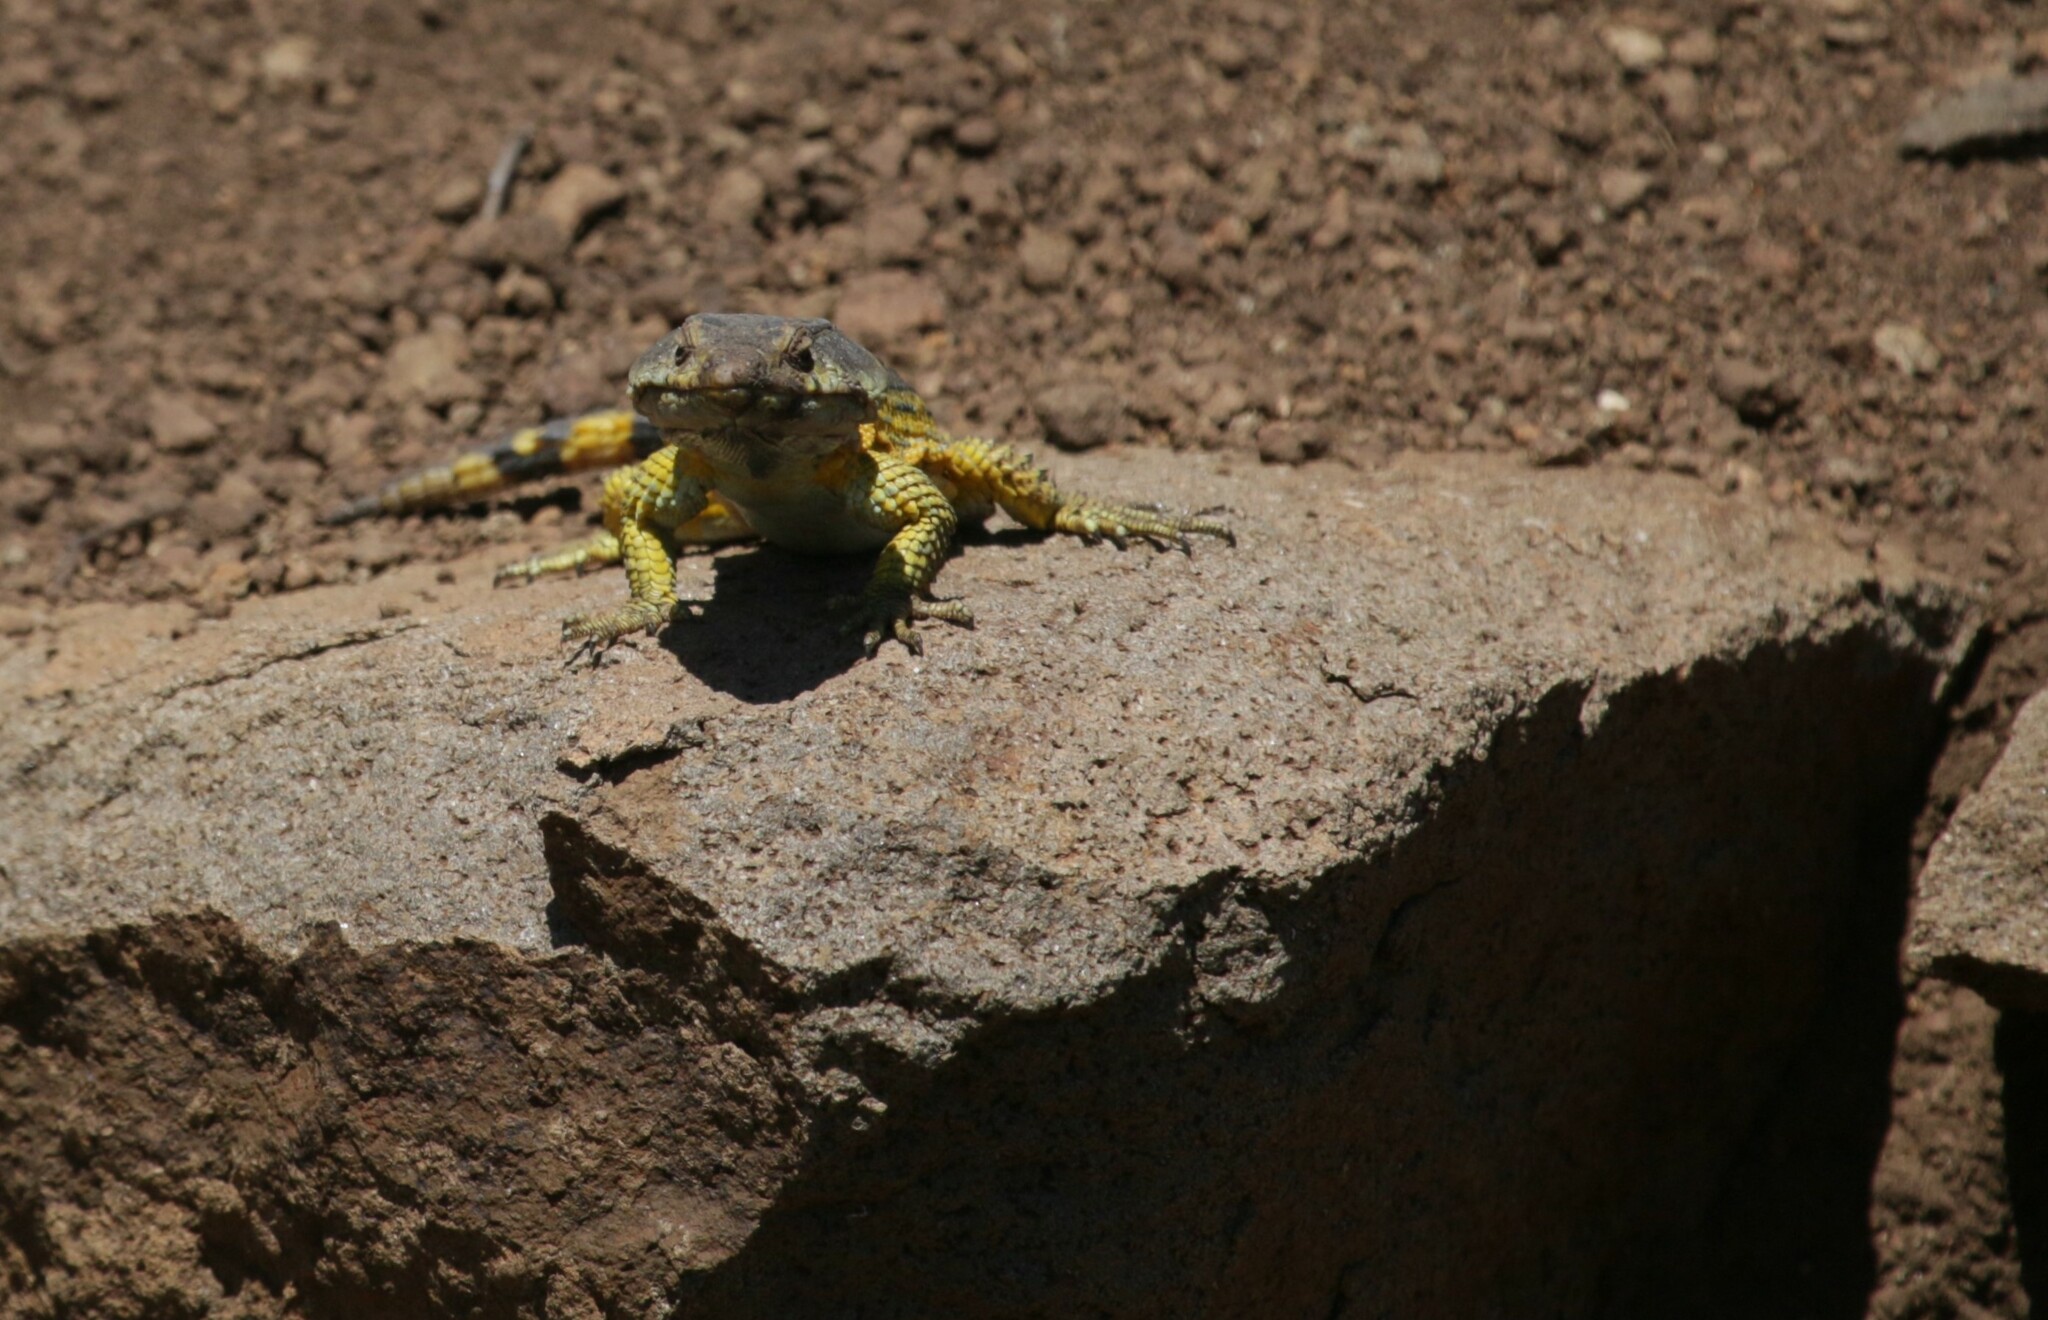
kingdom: Animalia
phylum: Chordata
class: Squamata
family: Cordylidae
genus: Pseudocordylus
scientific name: Pseudocordylus subviridis
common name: Drakensberg crag lizard
